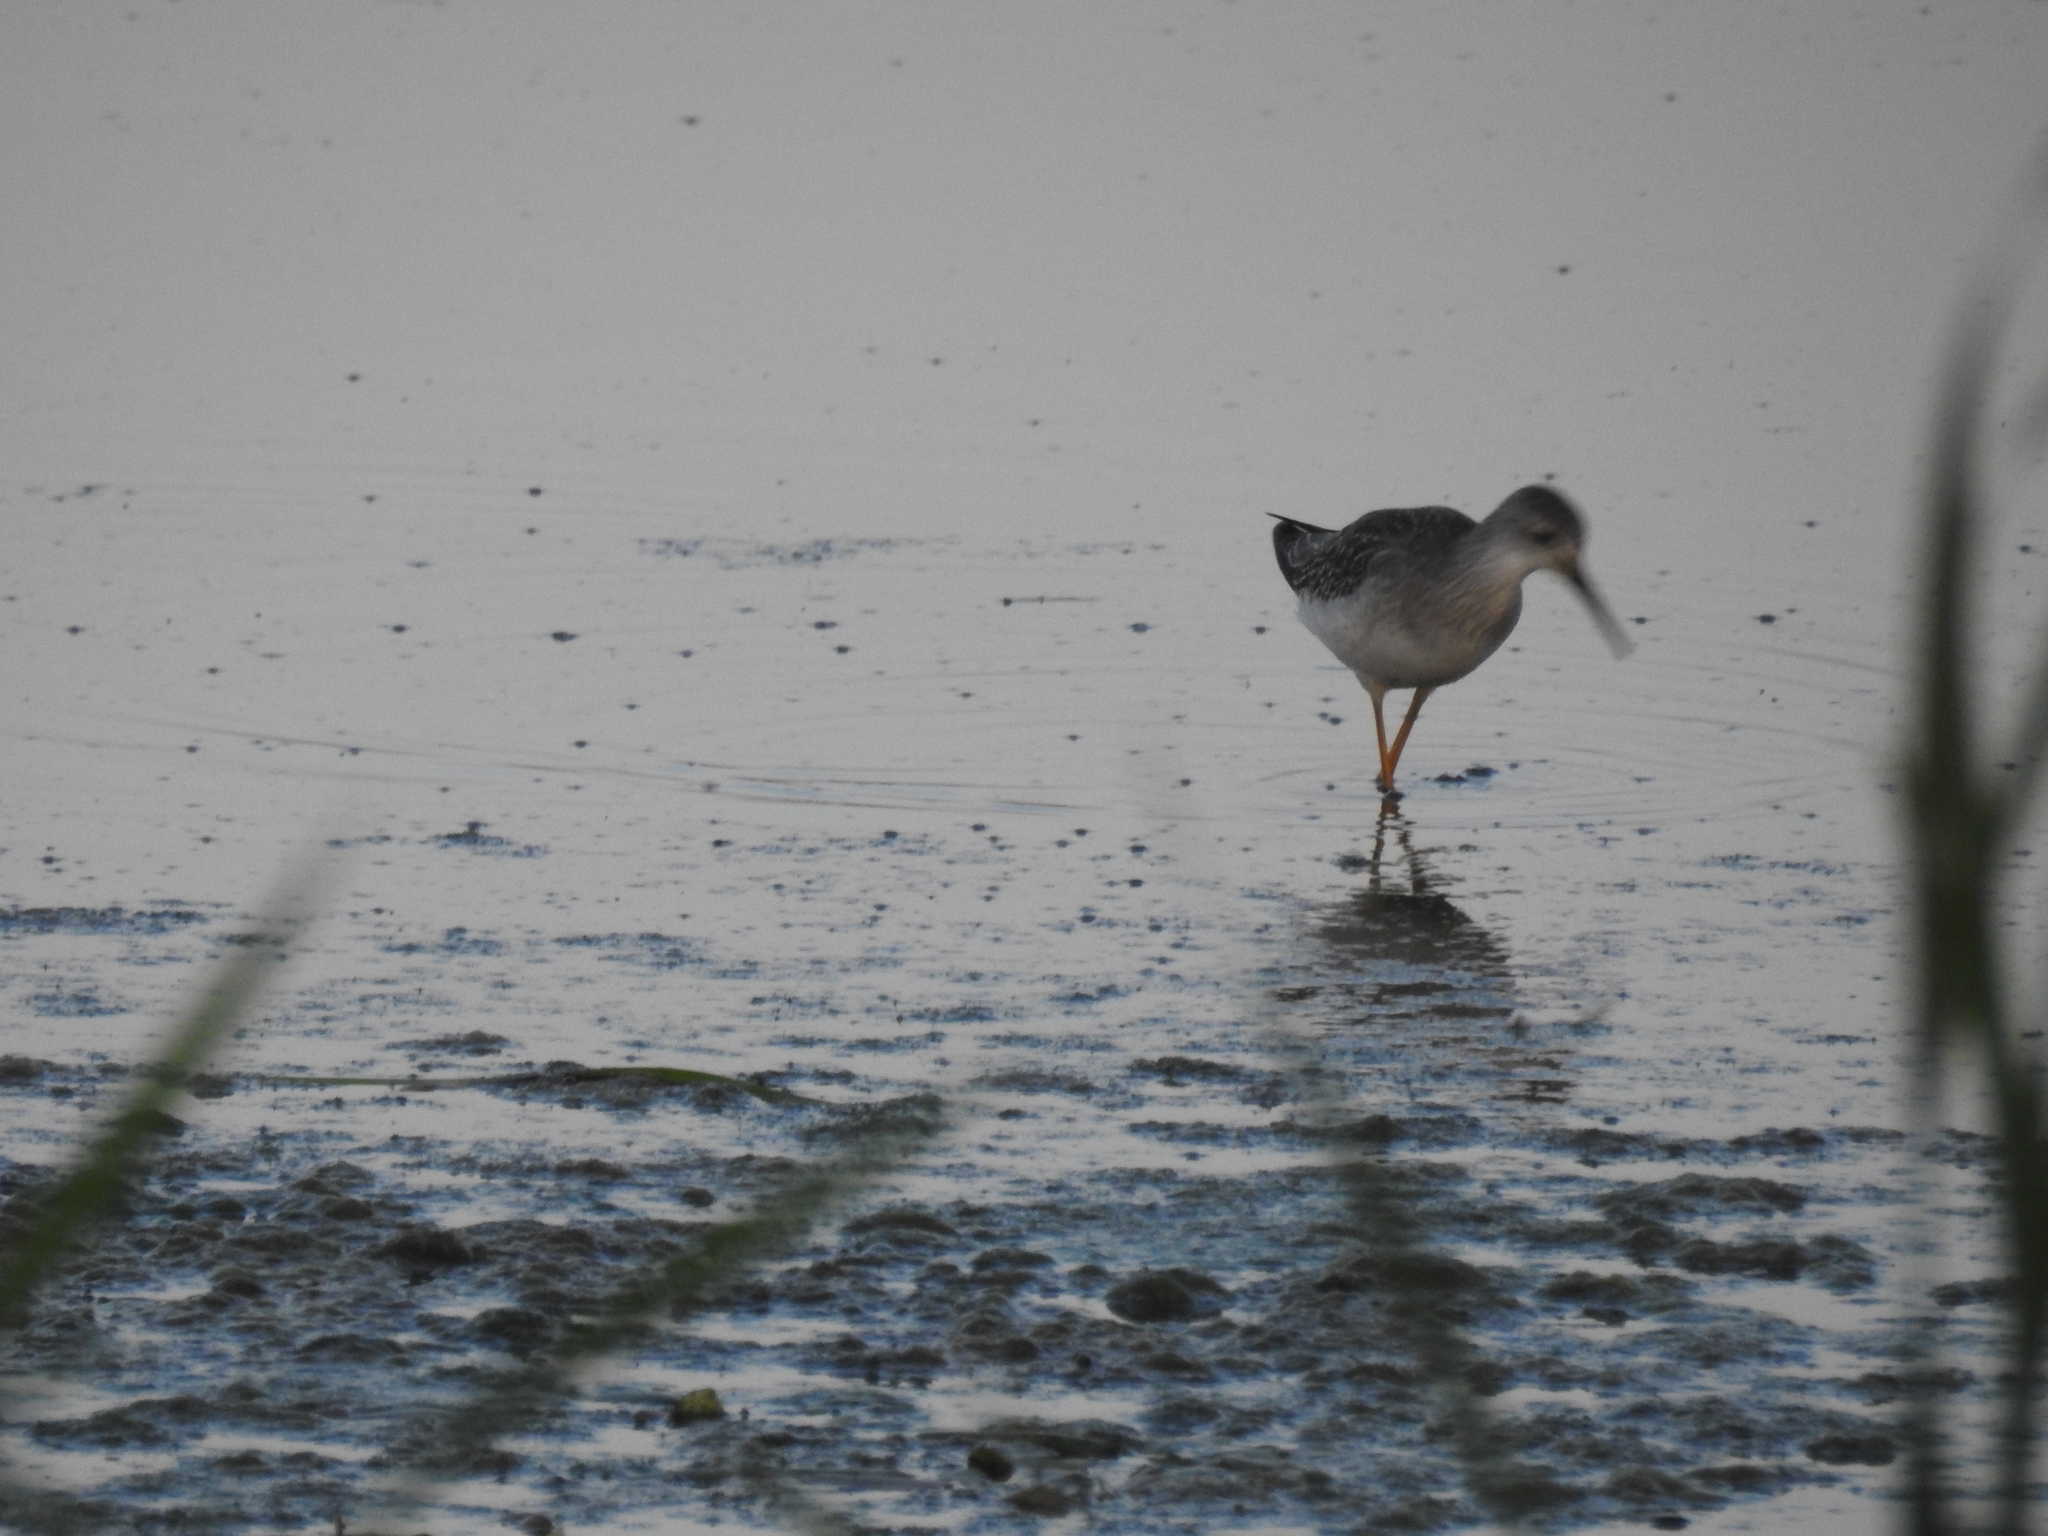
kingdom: Animalia
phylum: Chordata
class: Aves
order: Charadriiformes
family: Scolopacidae
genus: Tringa
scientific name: Tringa flavipes
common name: Lesser yellowlegs
